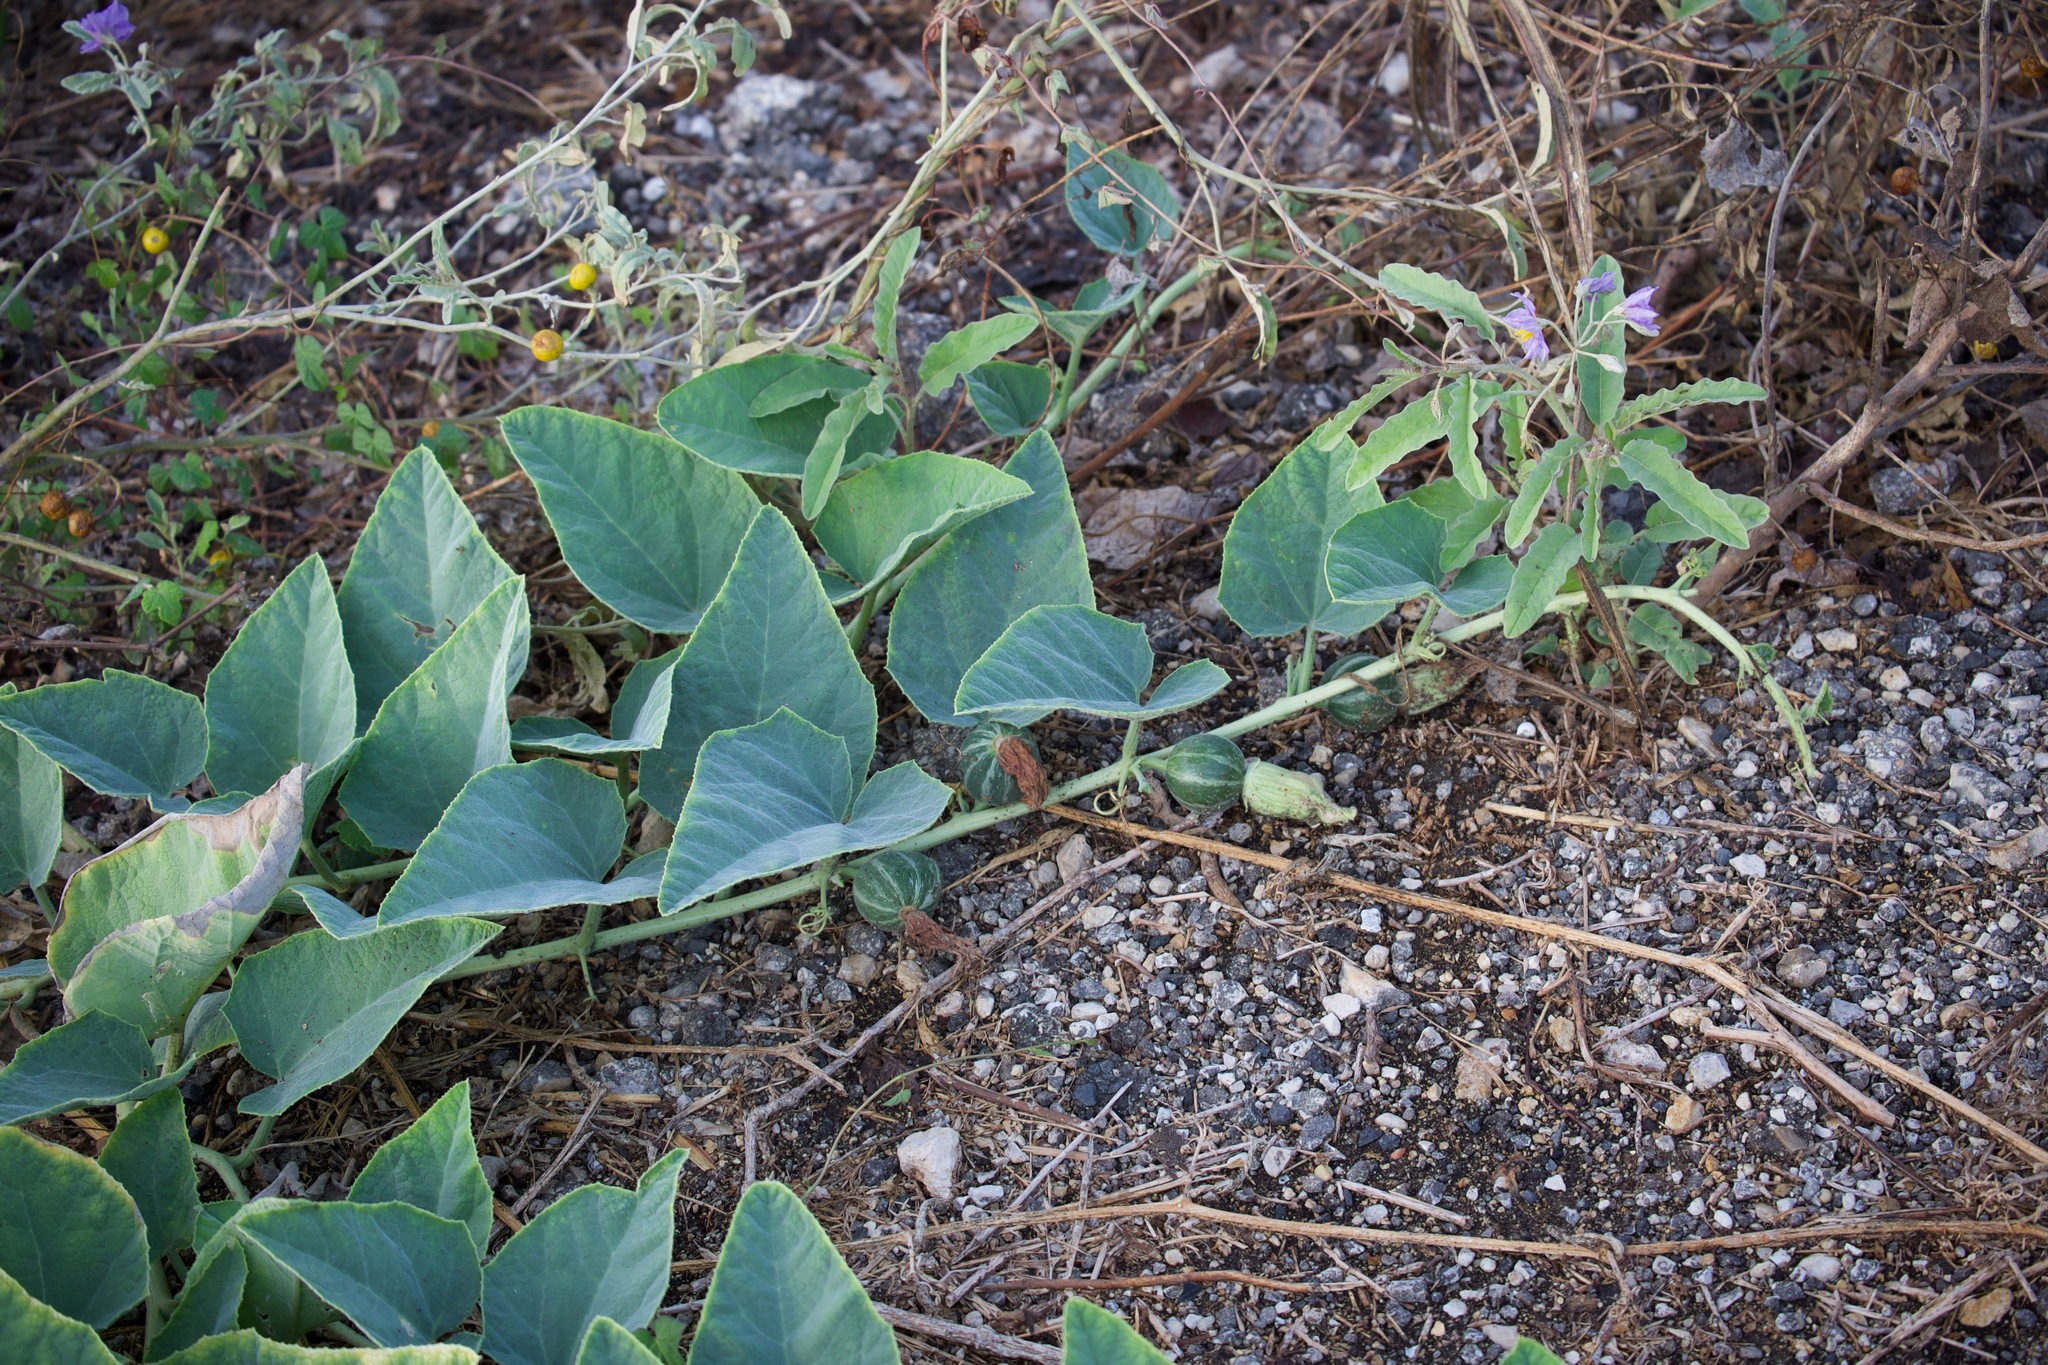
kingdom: Plantae
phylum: Tracheophyta
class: Magnoliopsida
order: Cucurbitales
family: Cucurbitaceae
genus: Cucurbita
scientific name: Cucurbita foetidissima
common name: Buffalo gourd
